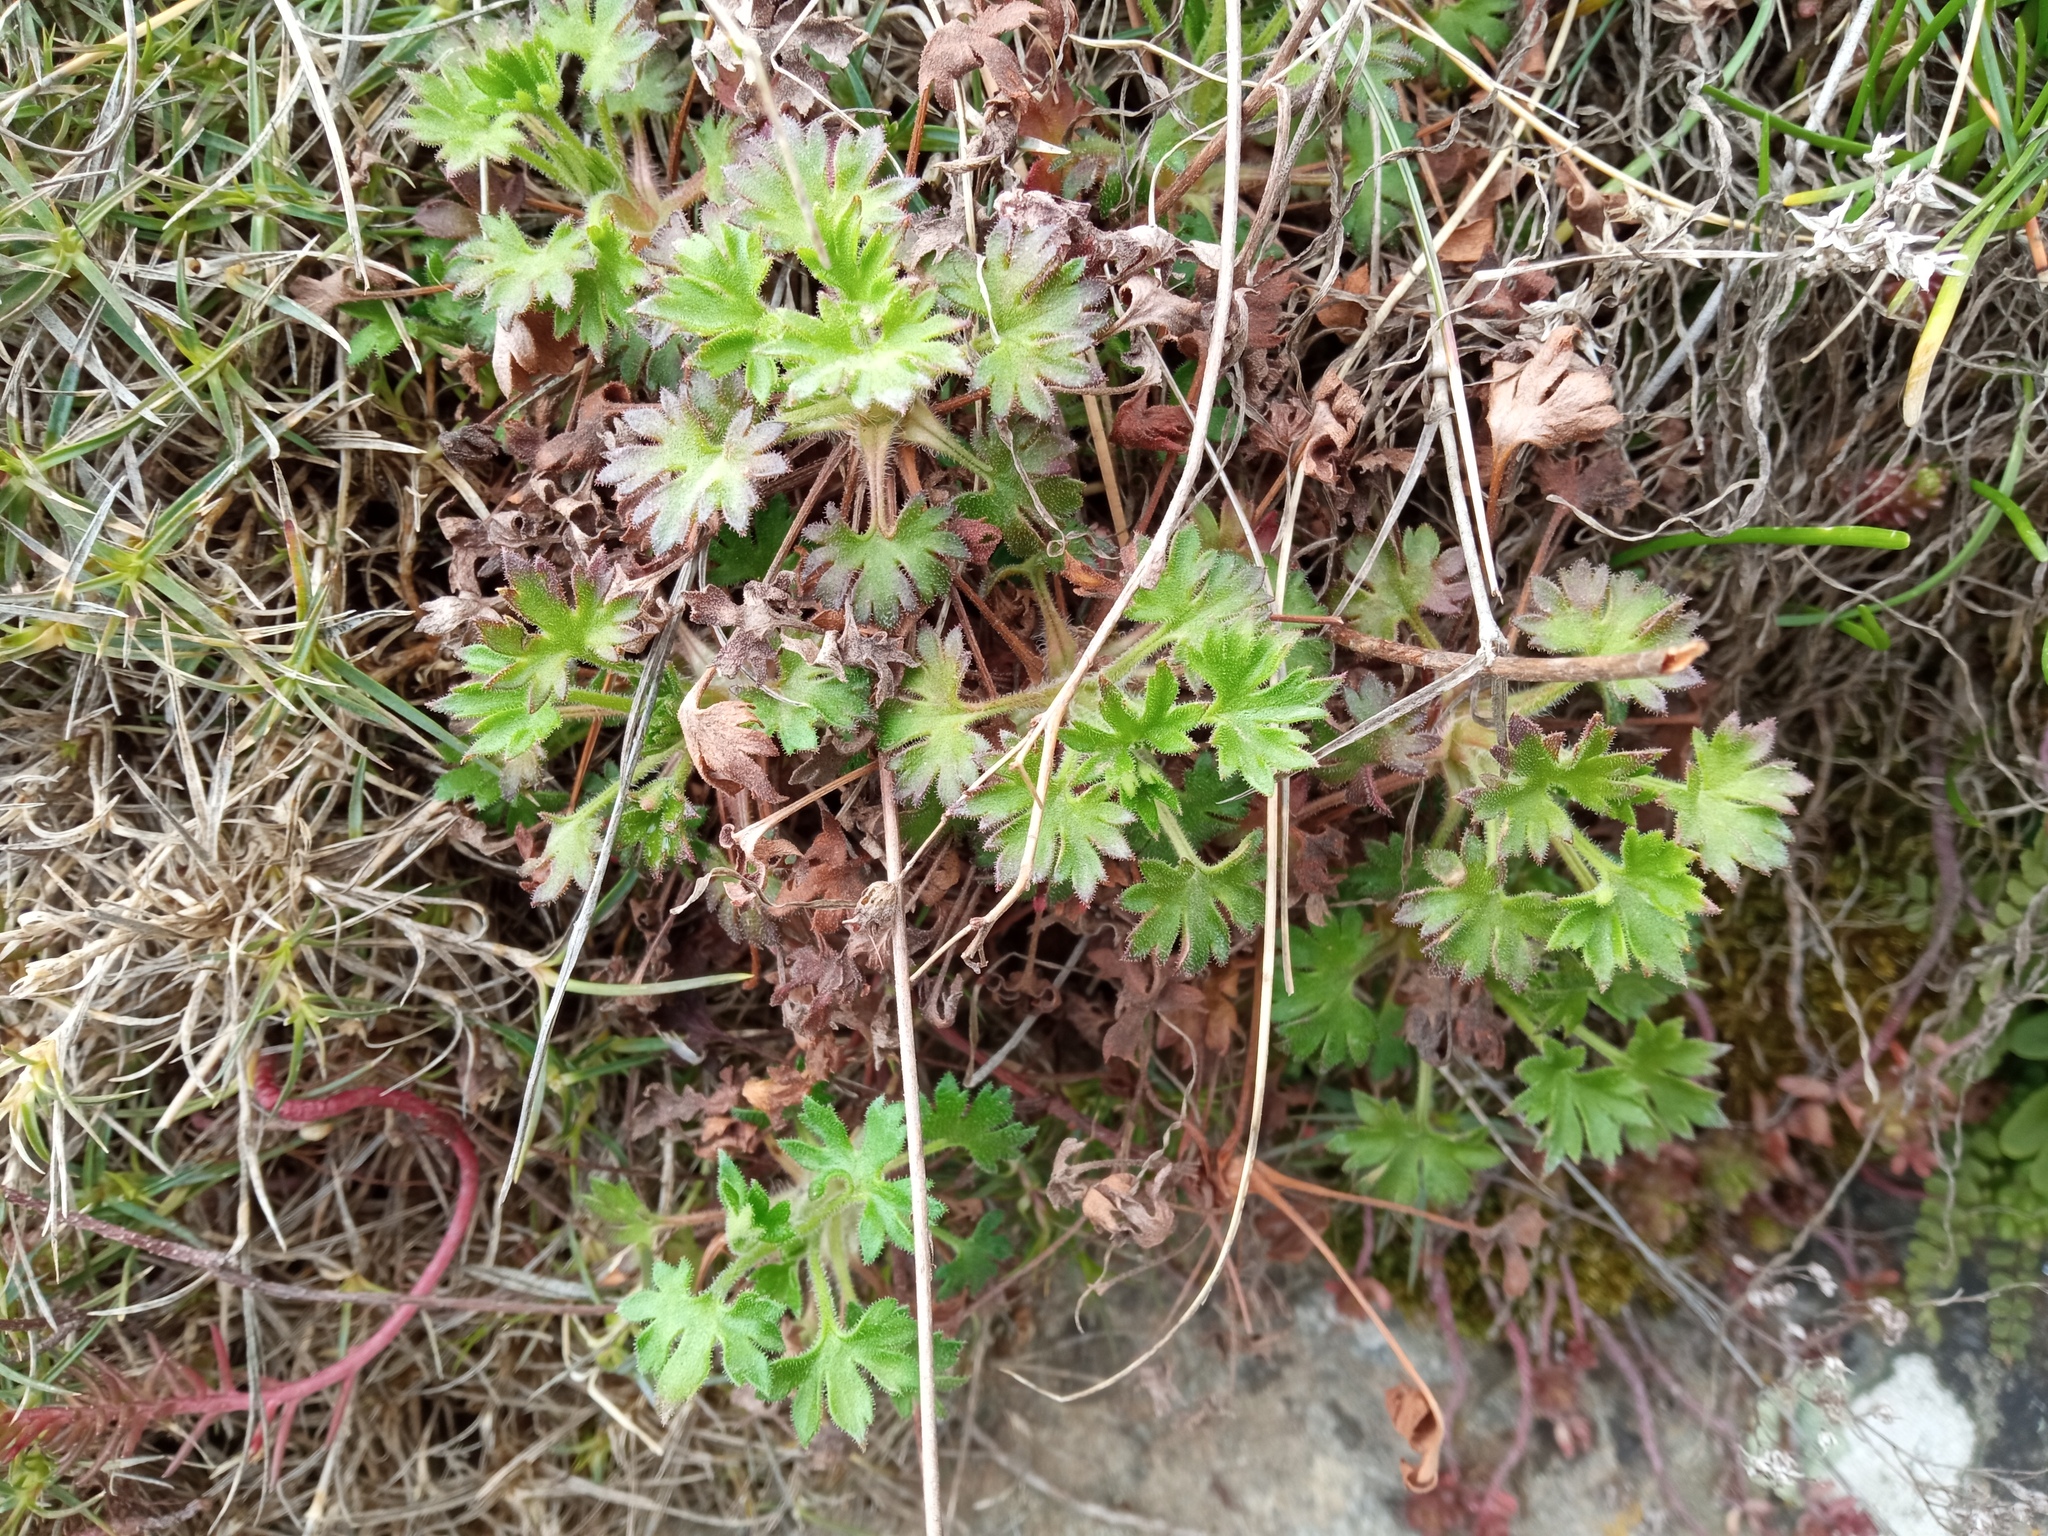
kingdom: Plantae
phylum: Tracheophyta
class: Magnoliopsida
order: Saxifragales
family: Saxifragaceae
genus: Saxifraga
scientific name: Saxifraga genesiana
